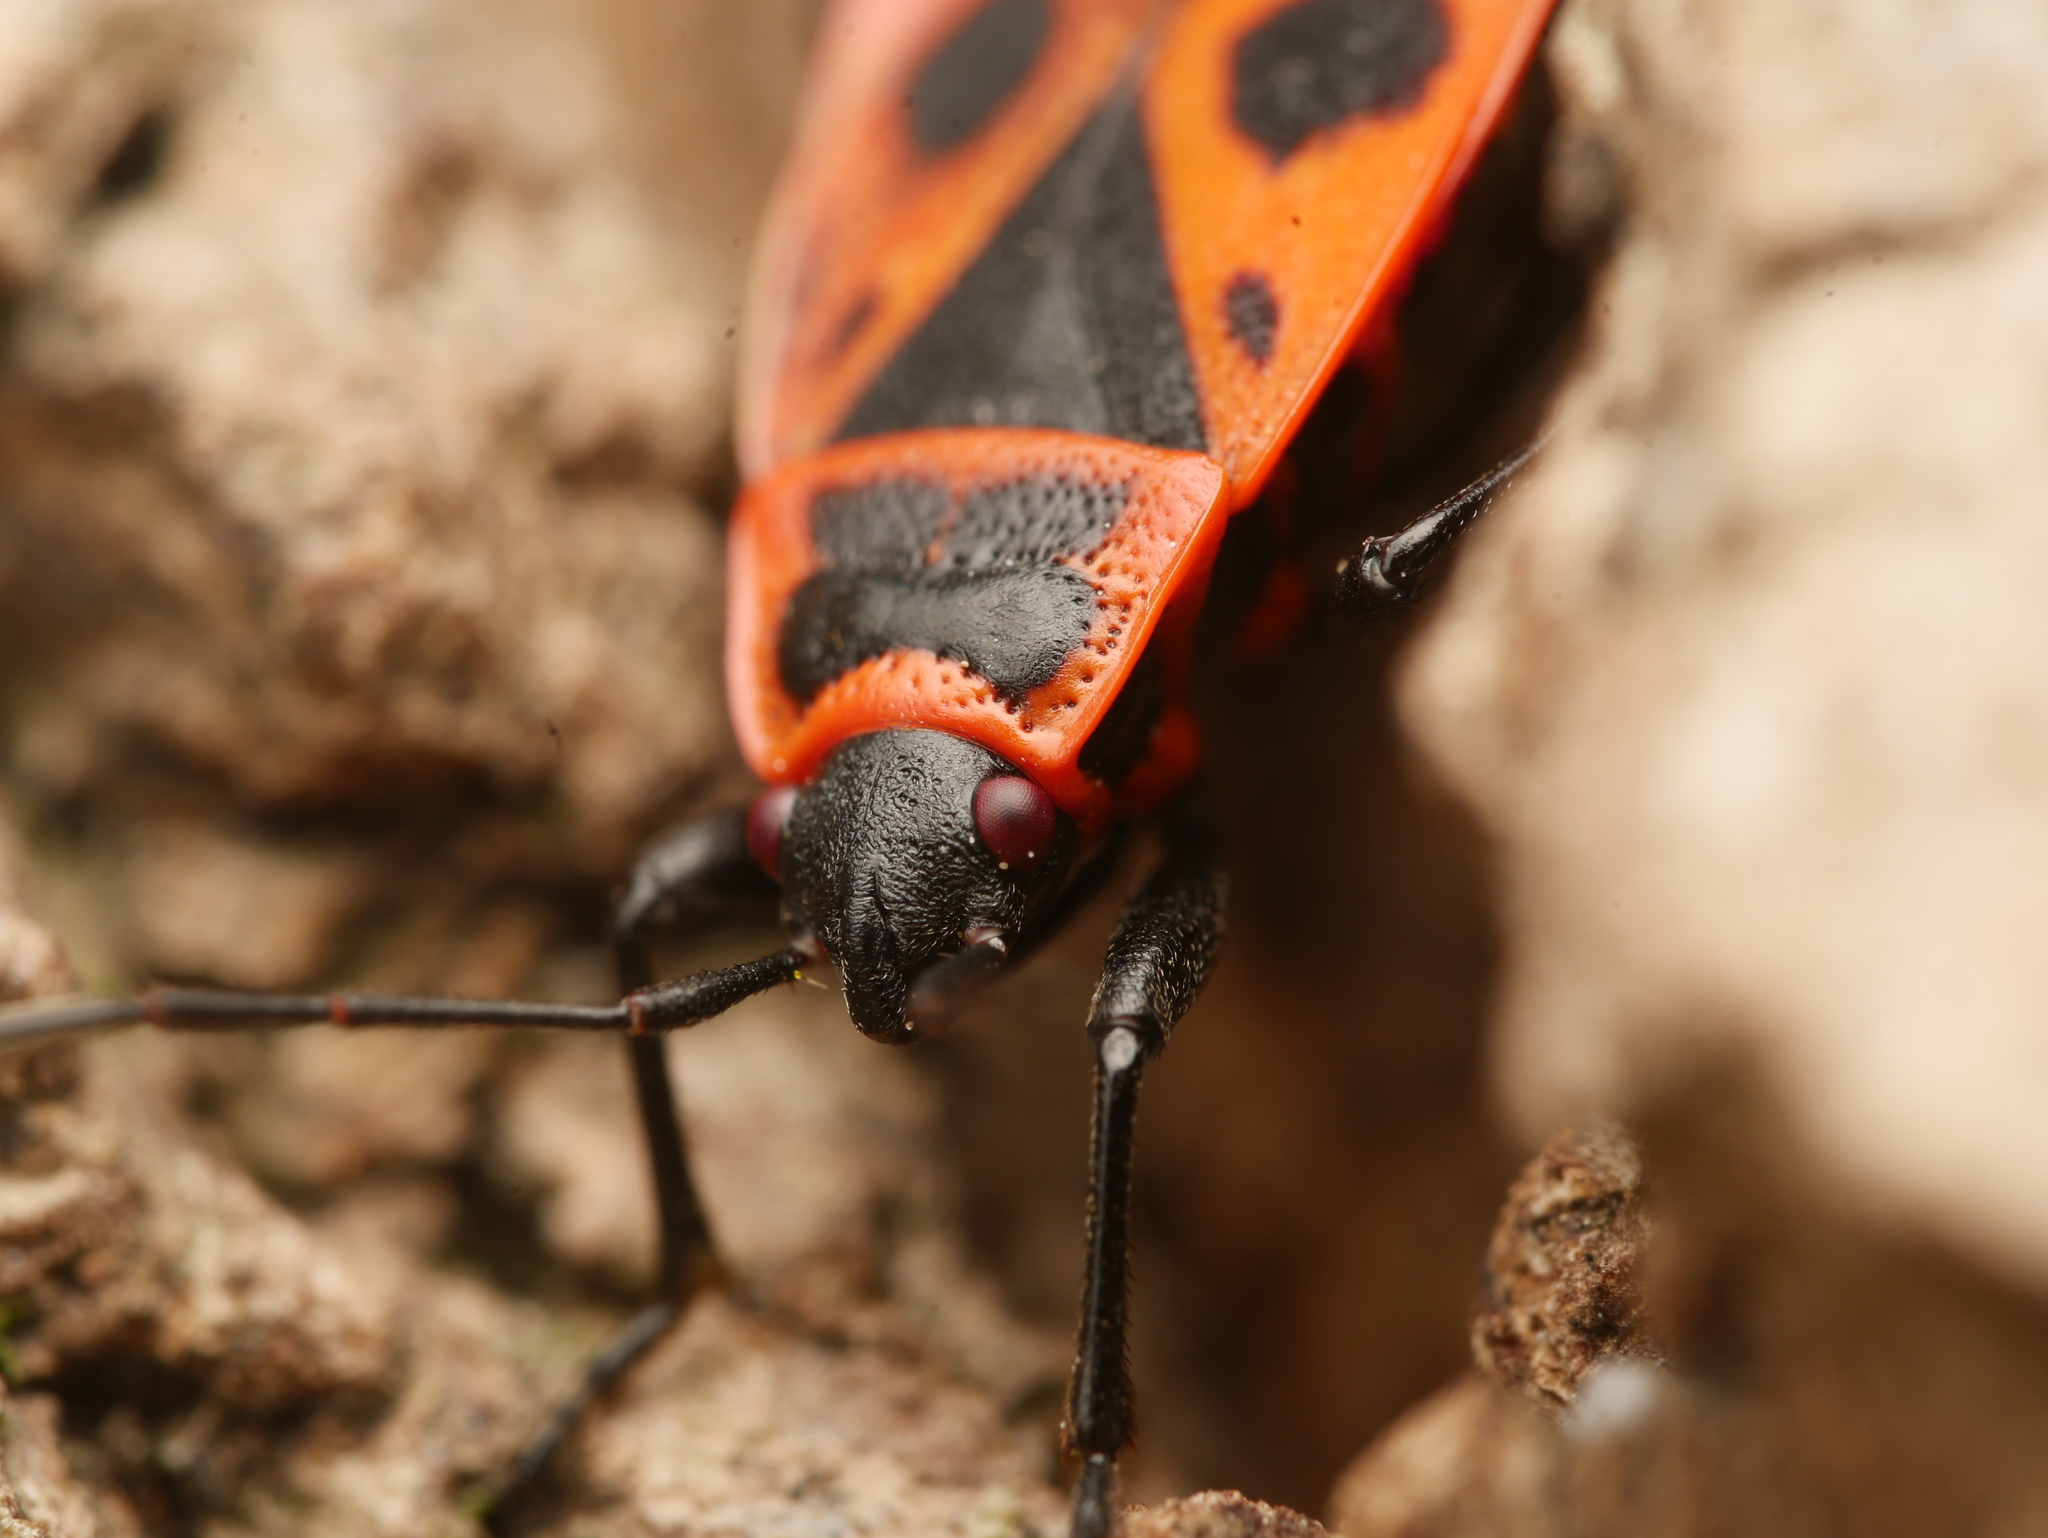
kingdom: Animalia
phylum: Arthropoda
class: Insecta
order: Hemiptera
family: Pyrrhocoridae
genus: Pyrrhocoris
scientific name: Pyrrhocoris apterus
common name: Firebug
